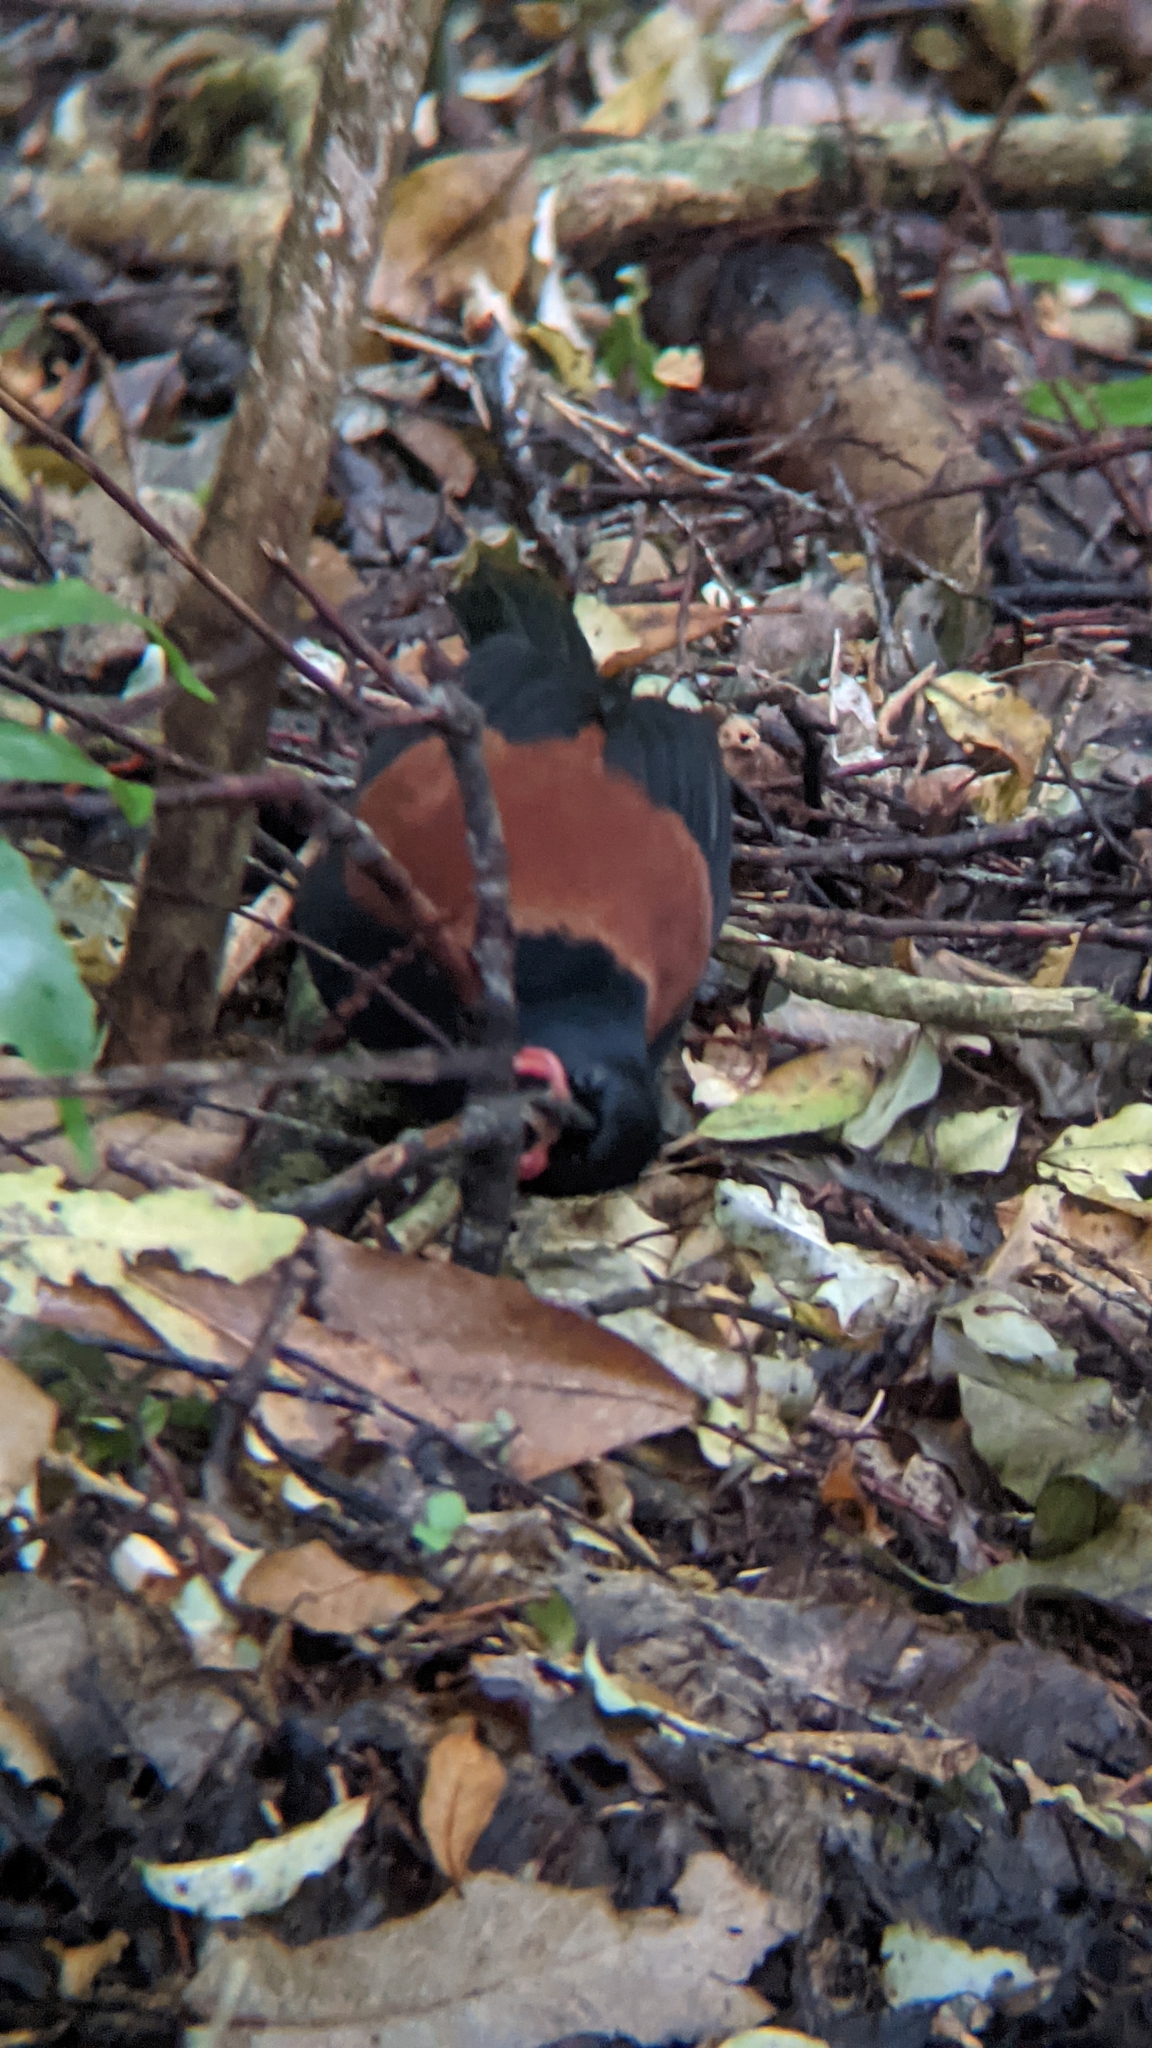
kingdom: Animalia
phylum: Chordata
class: Aves
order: Passeriformes
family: Callaeatidae
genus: Philesturnus
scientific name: Philesturnus carunculatus
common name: South island saddleback
